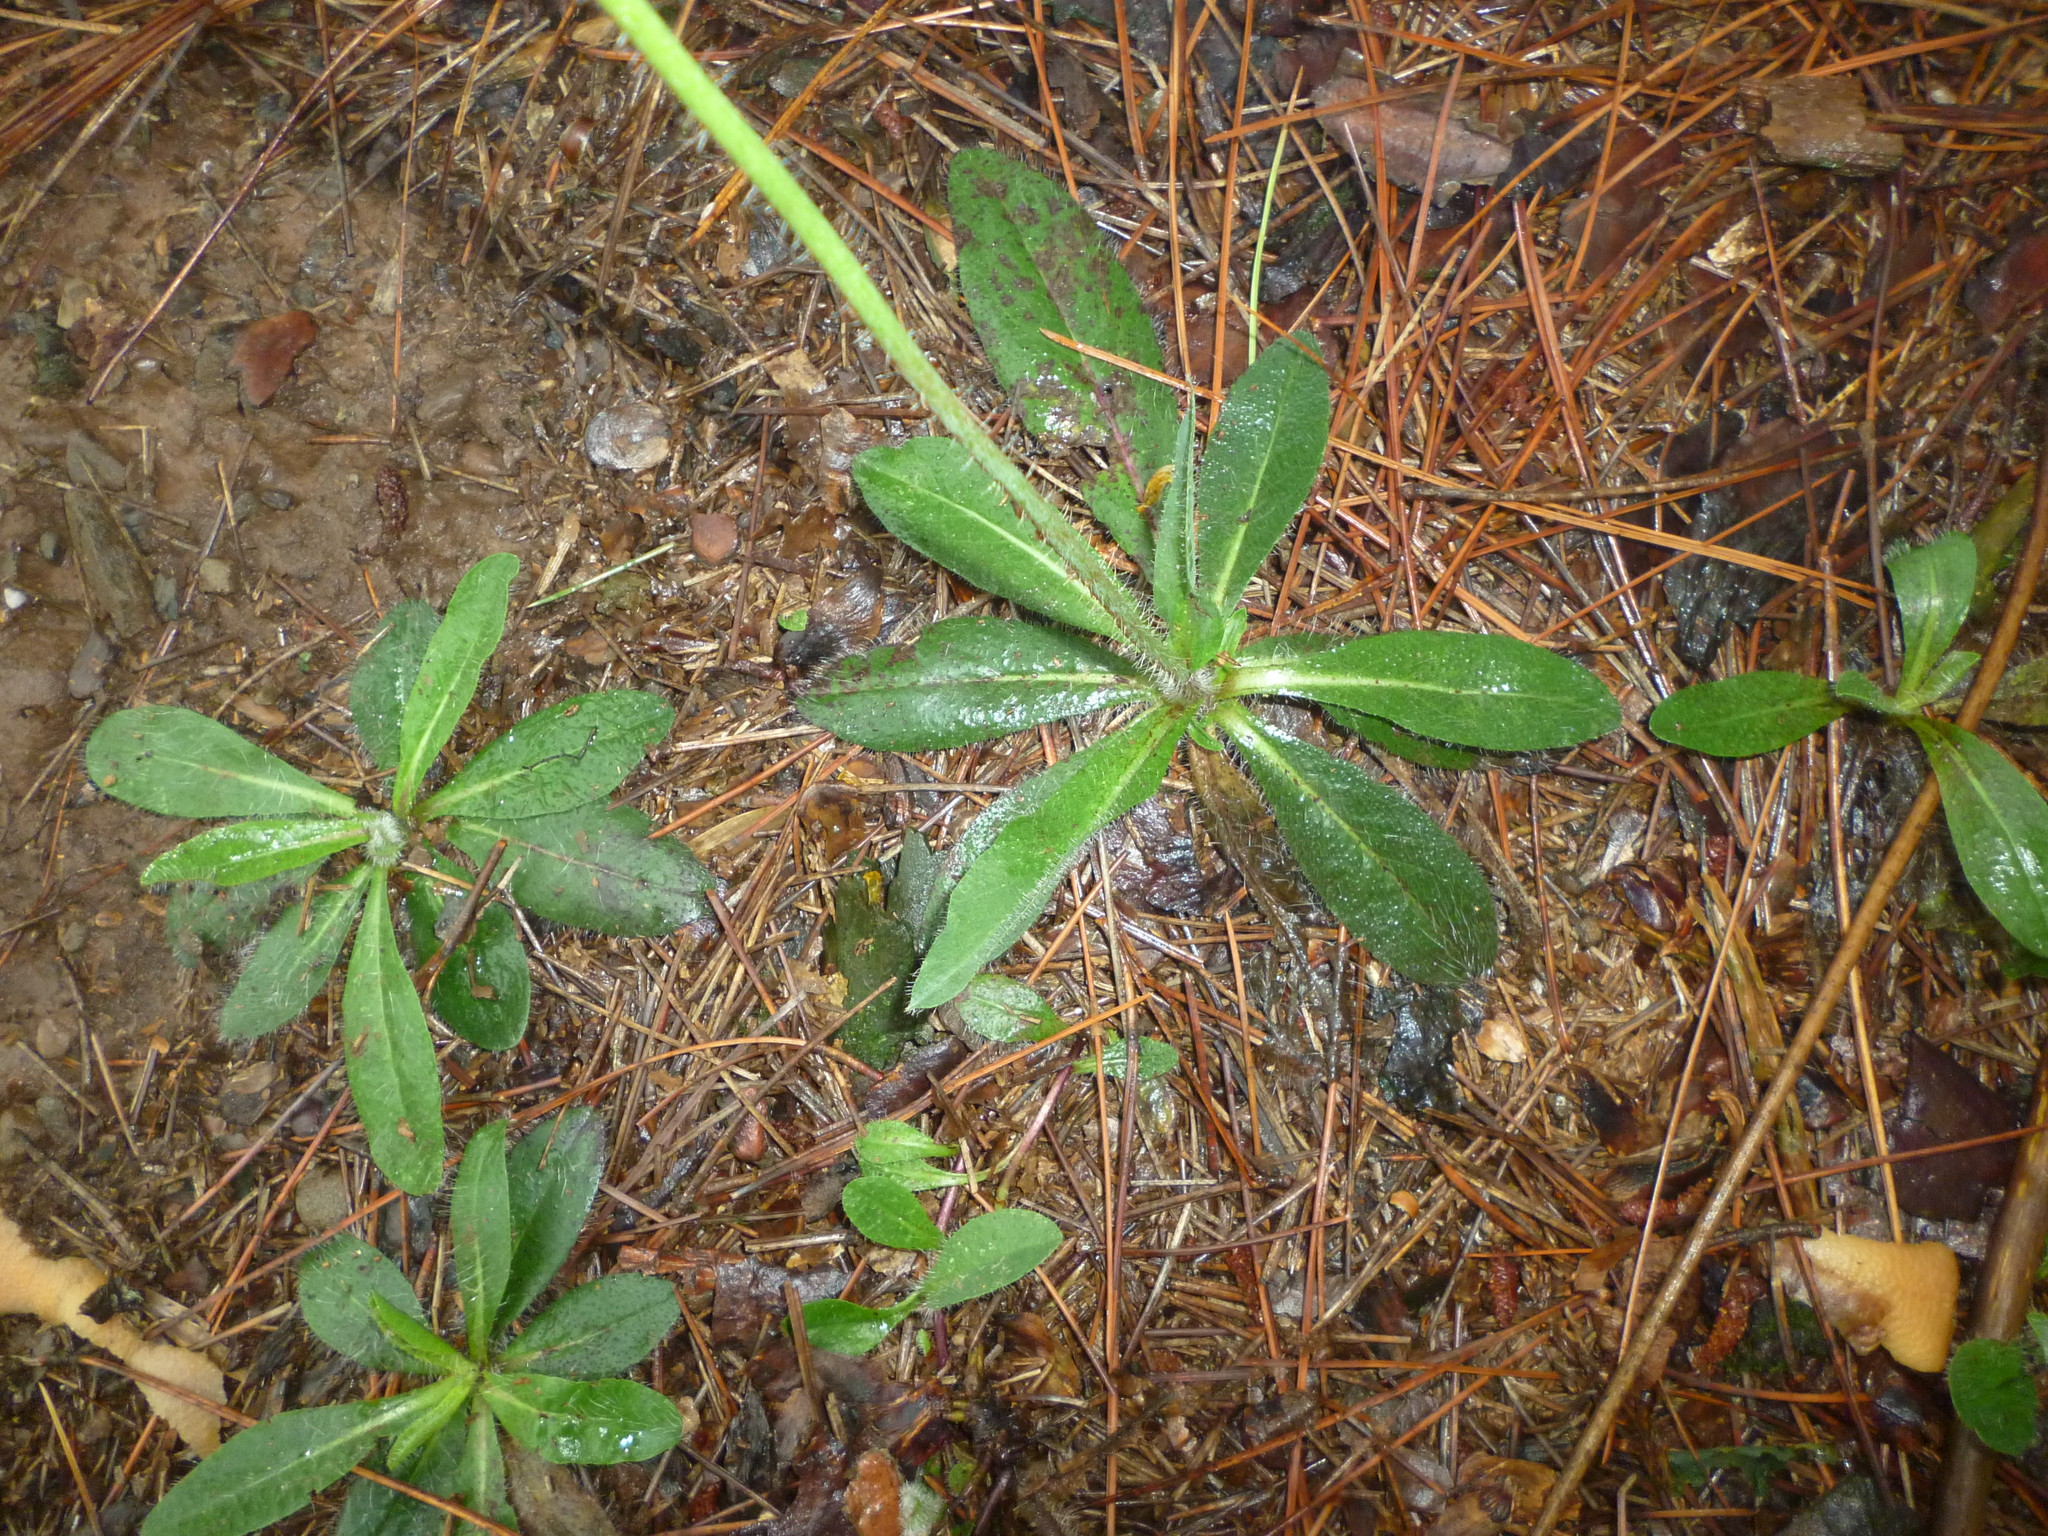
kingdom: Plantae
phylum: Tracheophyta
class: Magnoliopsida
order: Asterales
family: Asteraceae
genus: Pilosella
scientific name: Pilosella aurantiaca
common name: Fox-and-cubs
